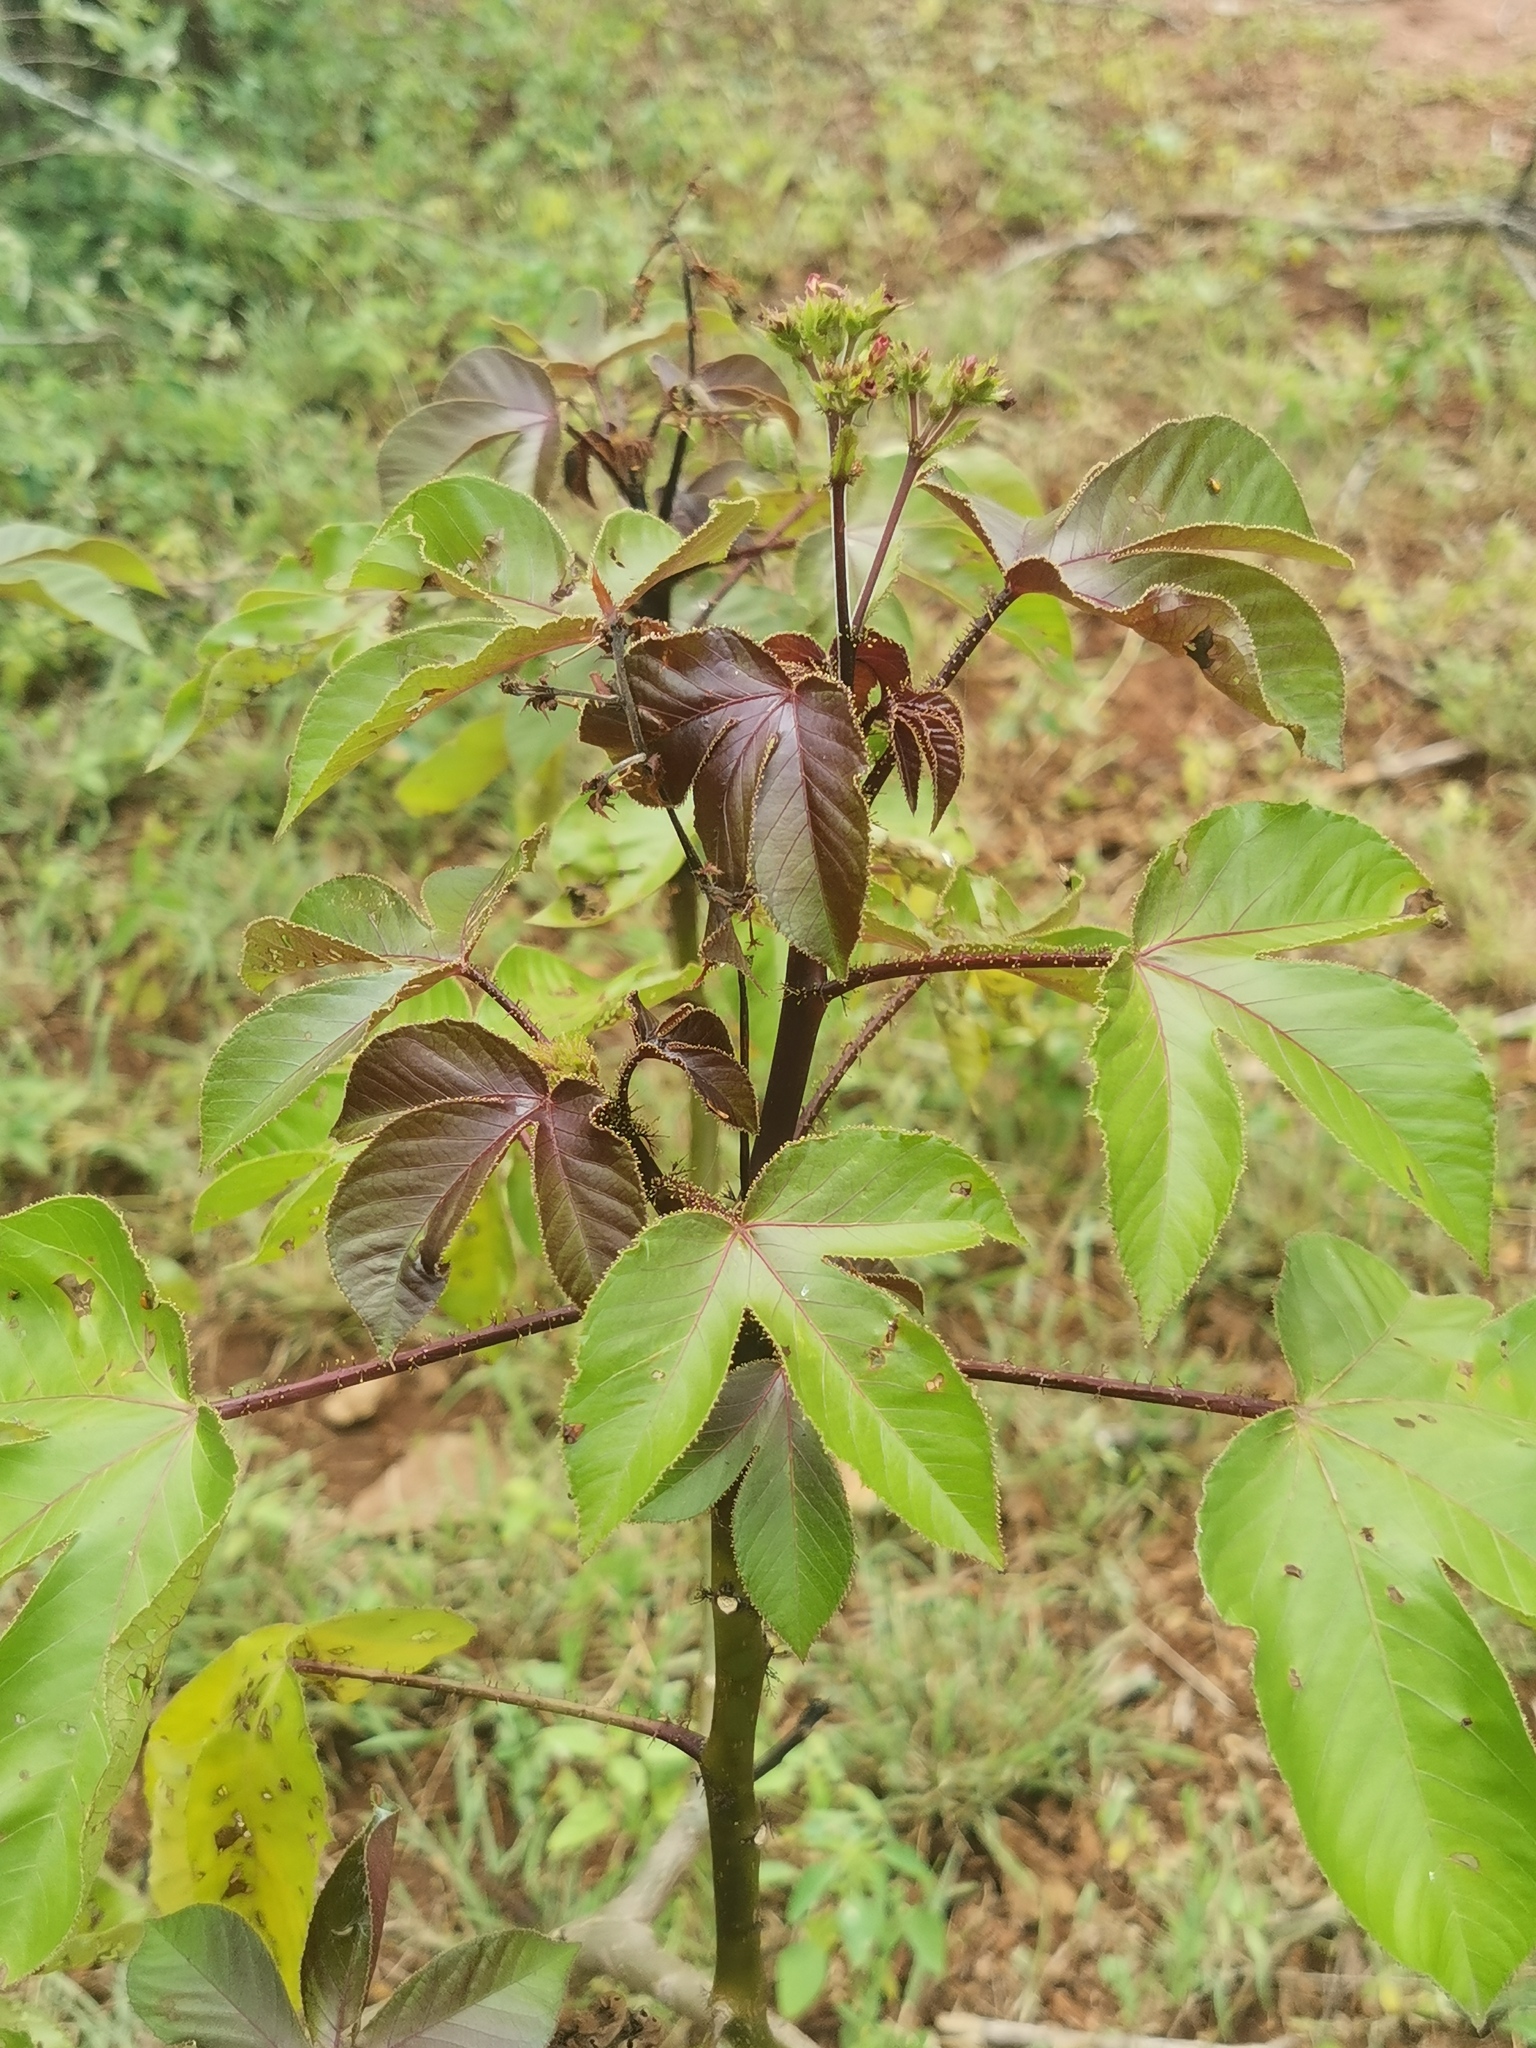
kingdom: Plantae
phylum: Tracheophyta
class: Magnoliopsida
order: Malpighiales
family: Euphorbiaceae
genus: Jatropha
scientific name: Jatropha gossypiifolia
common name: Bellyache bush
